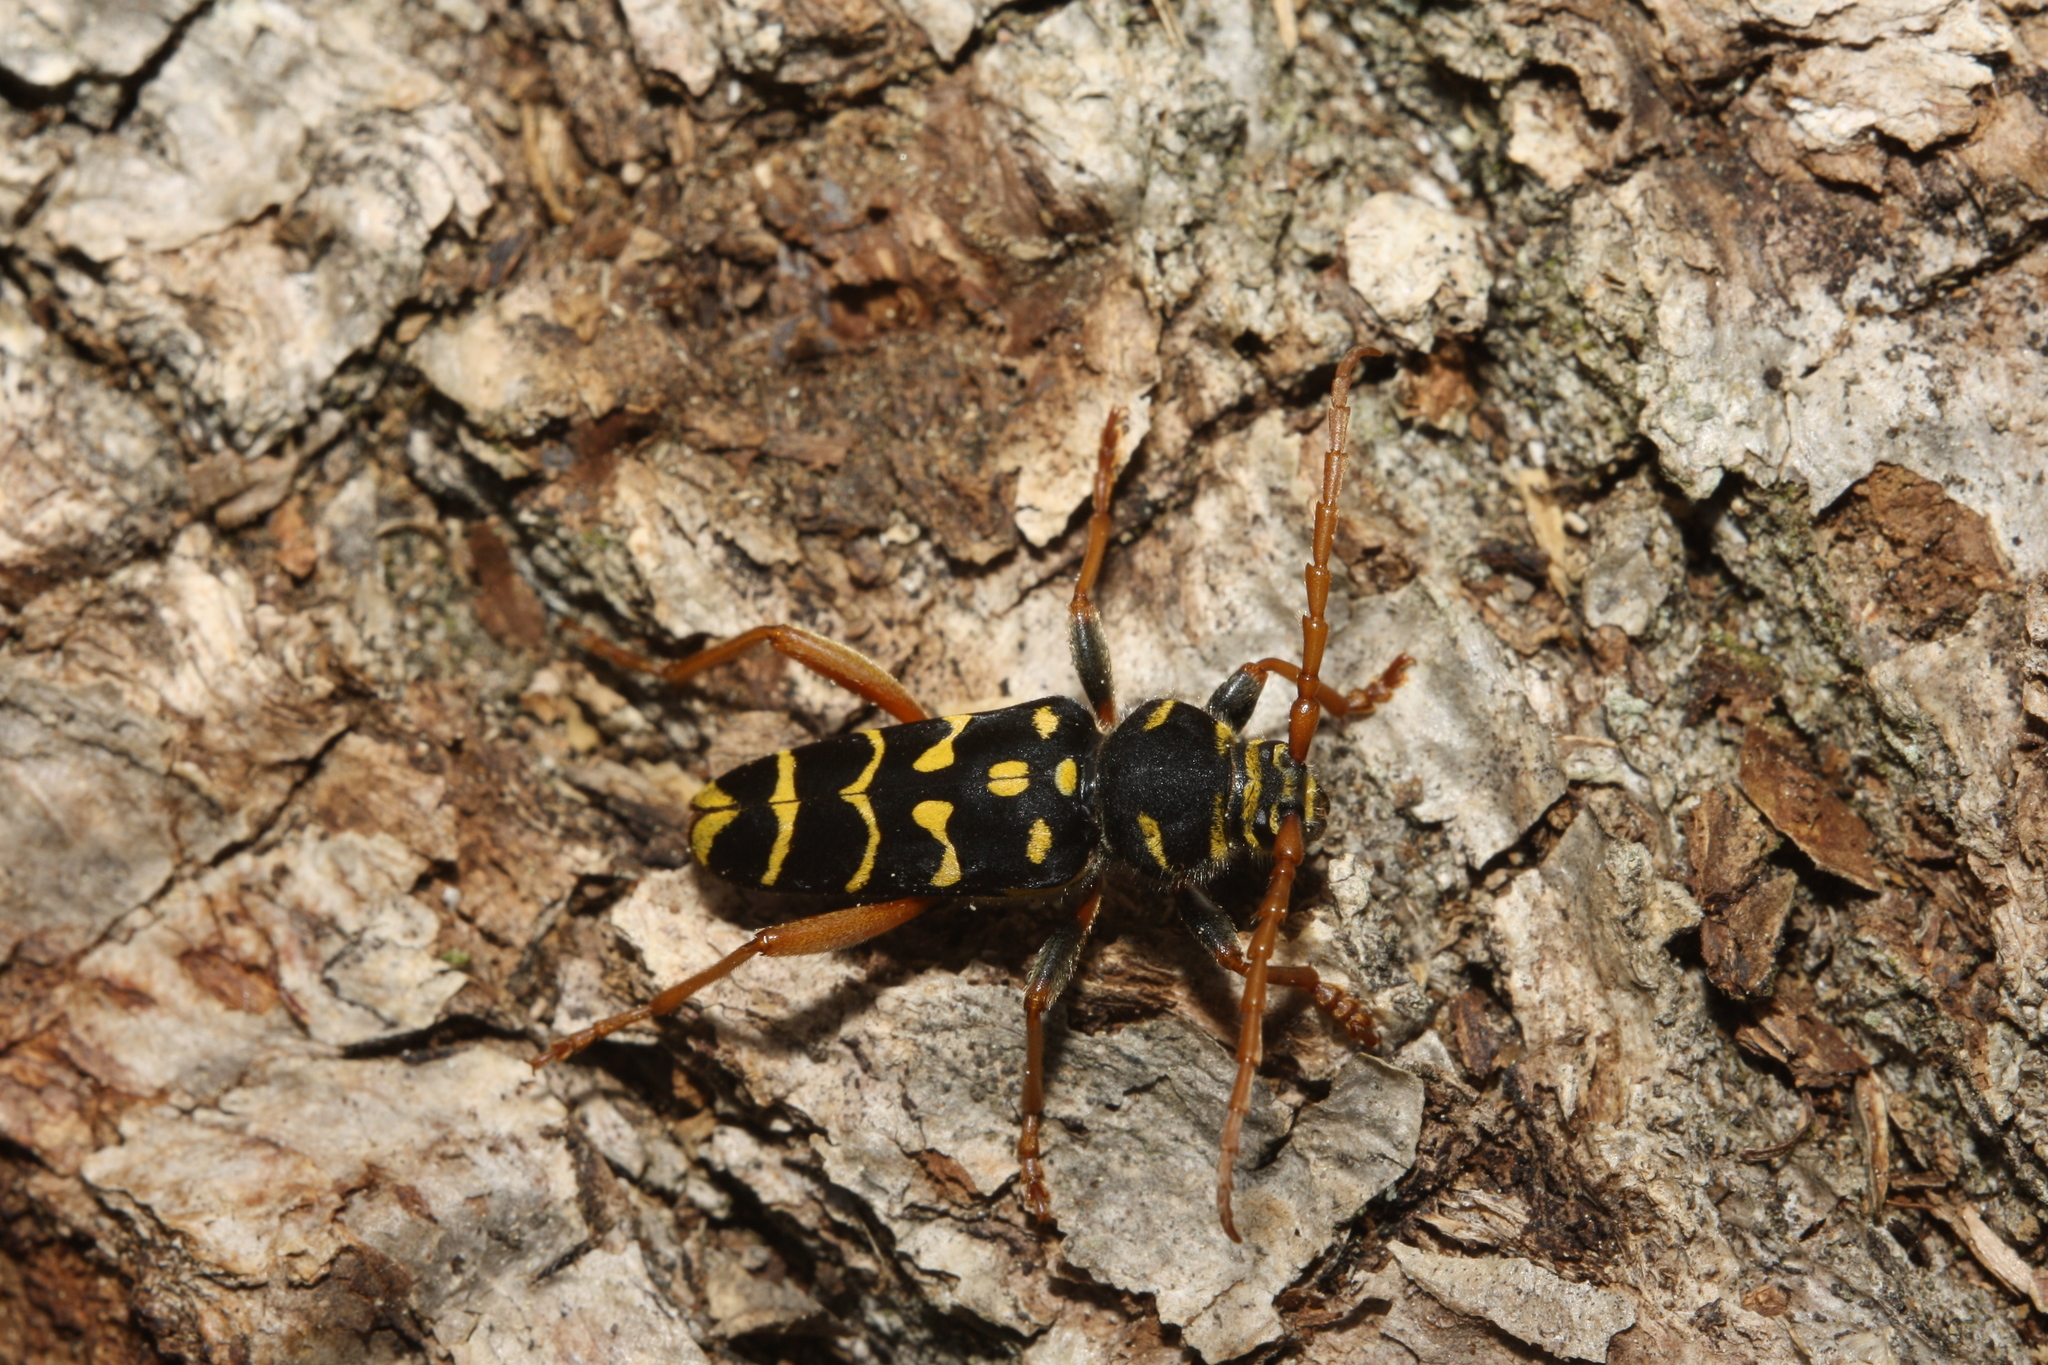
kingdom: Animalia
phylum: Arthropoda
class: Insecta
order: Coleoptera
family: Cerambycidae
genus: Plagionotus
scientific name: Plagionotus arcuatus
